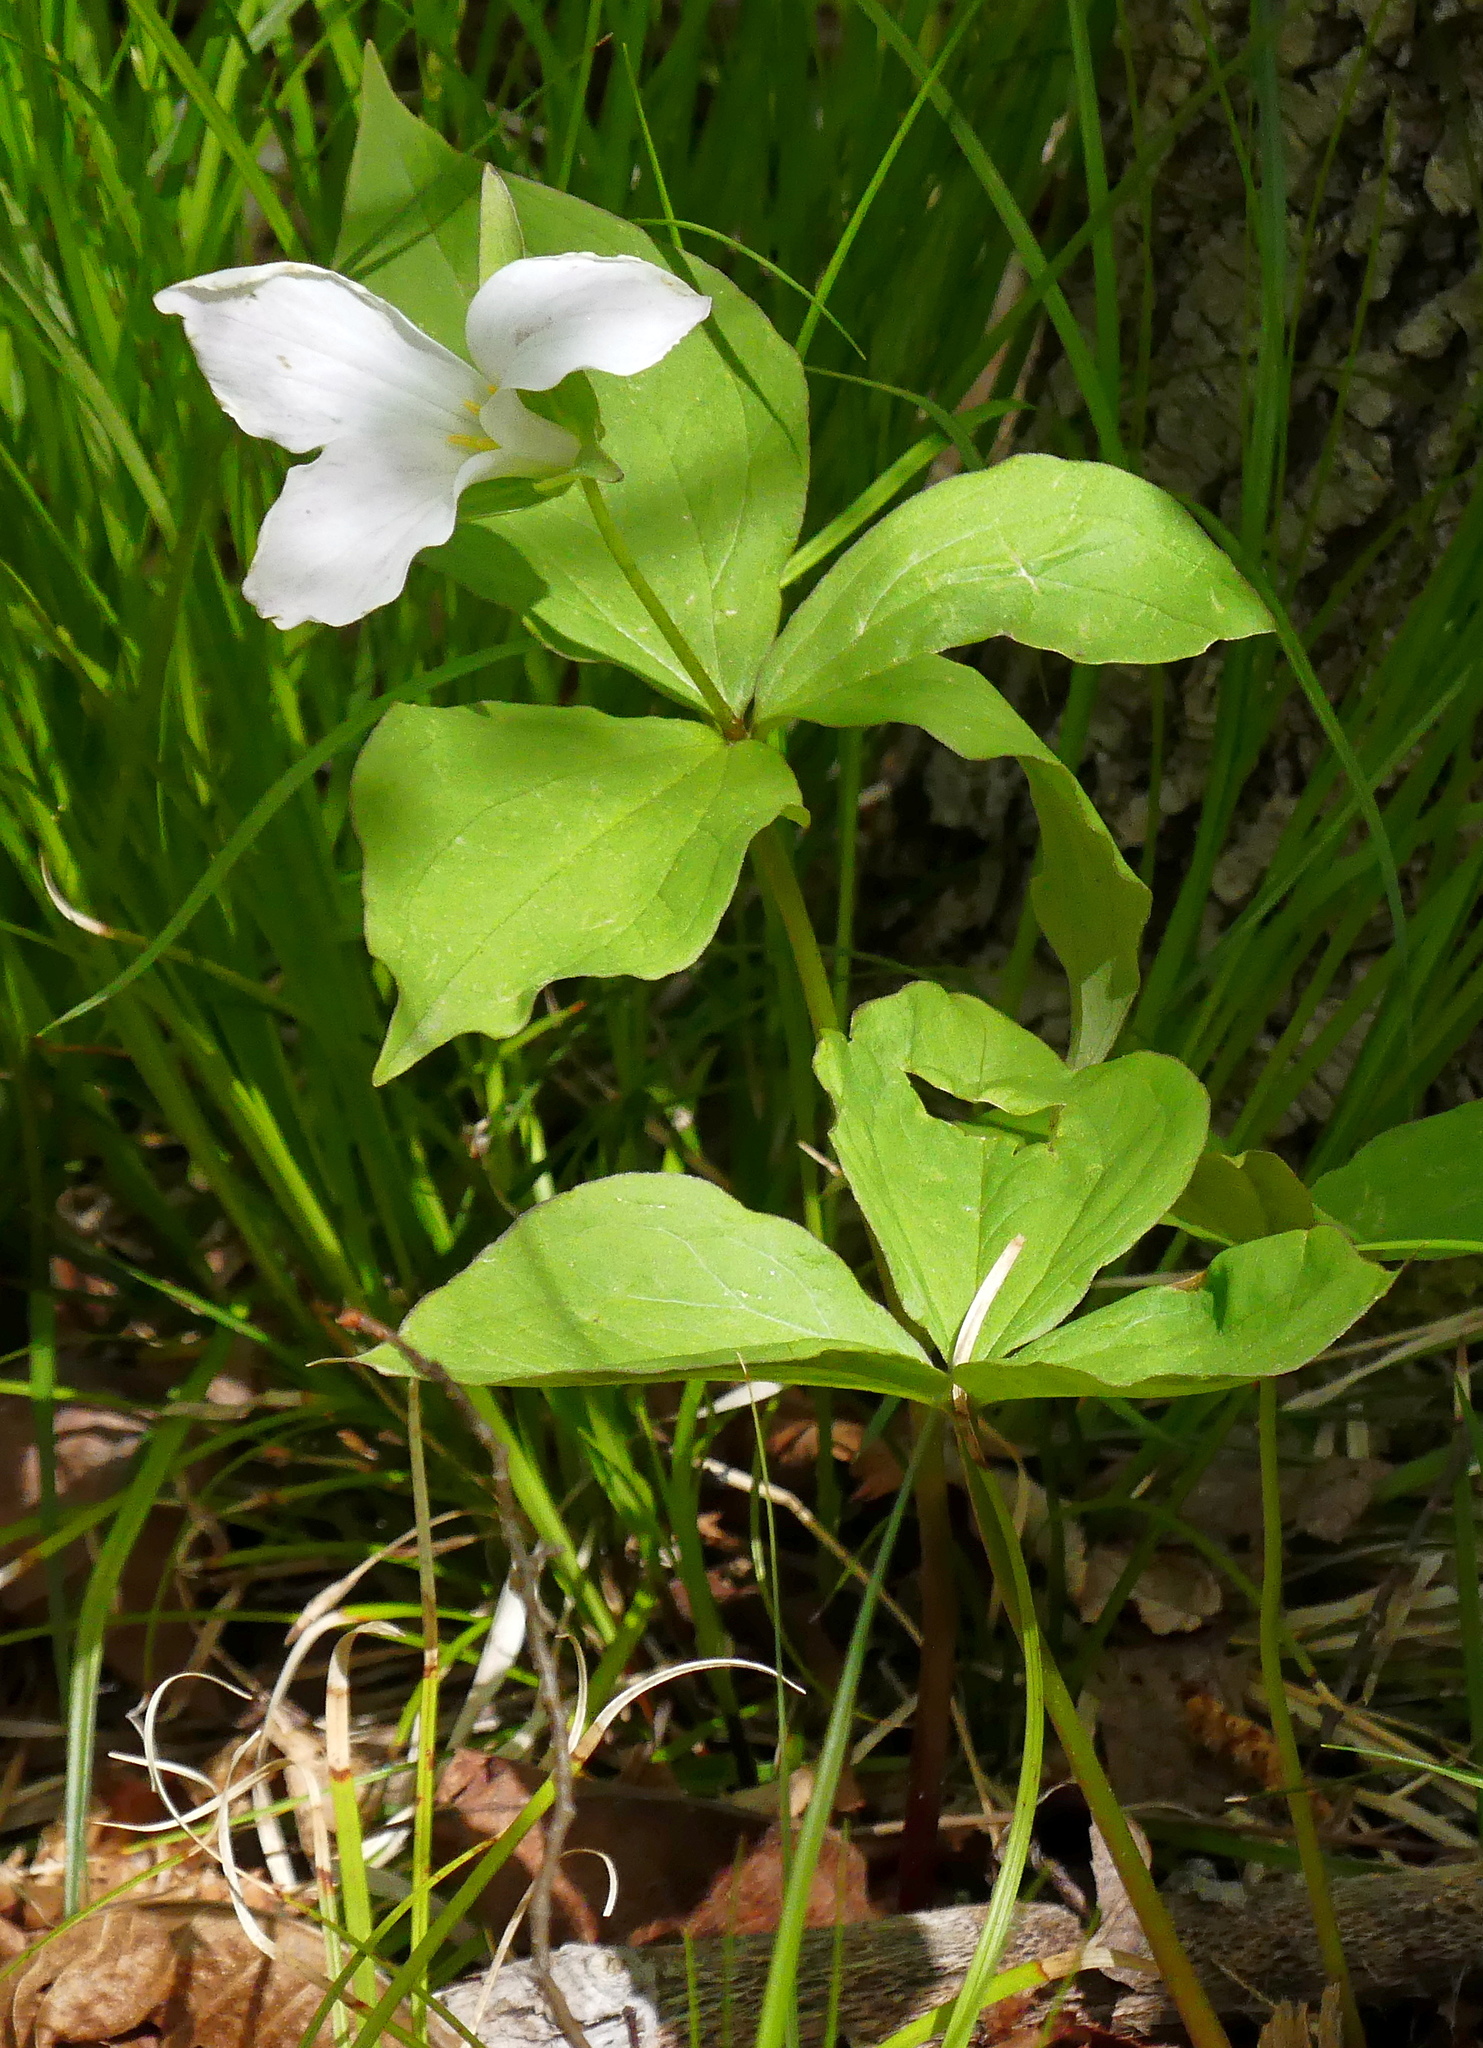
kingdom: Plantae
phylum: Tracheophyta
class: Liliopsida
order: Liliales
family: Melanthiaceae
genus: Trillium
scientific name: Trillium grandiflorum
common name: Great white trillium
